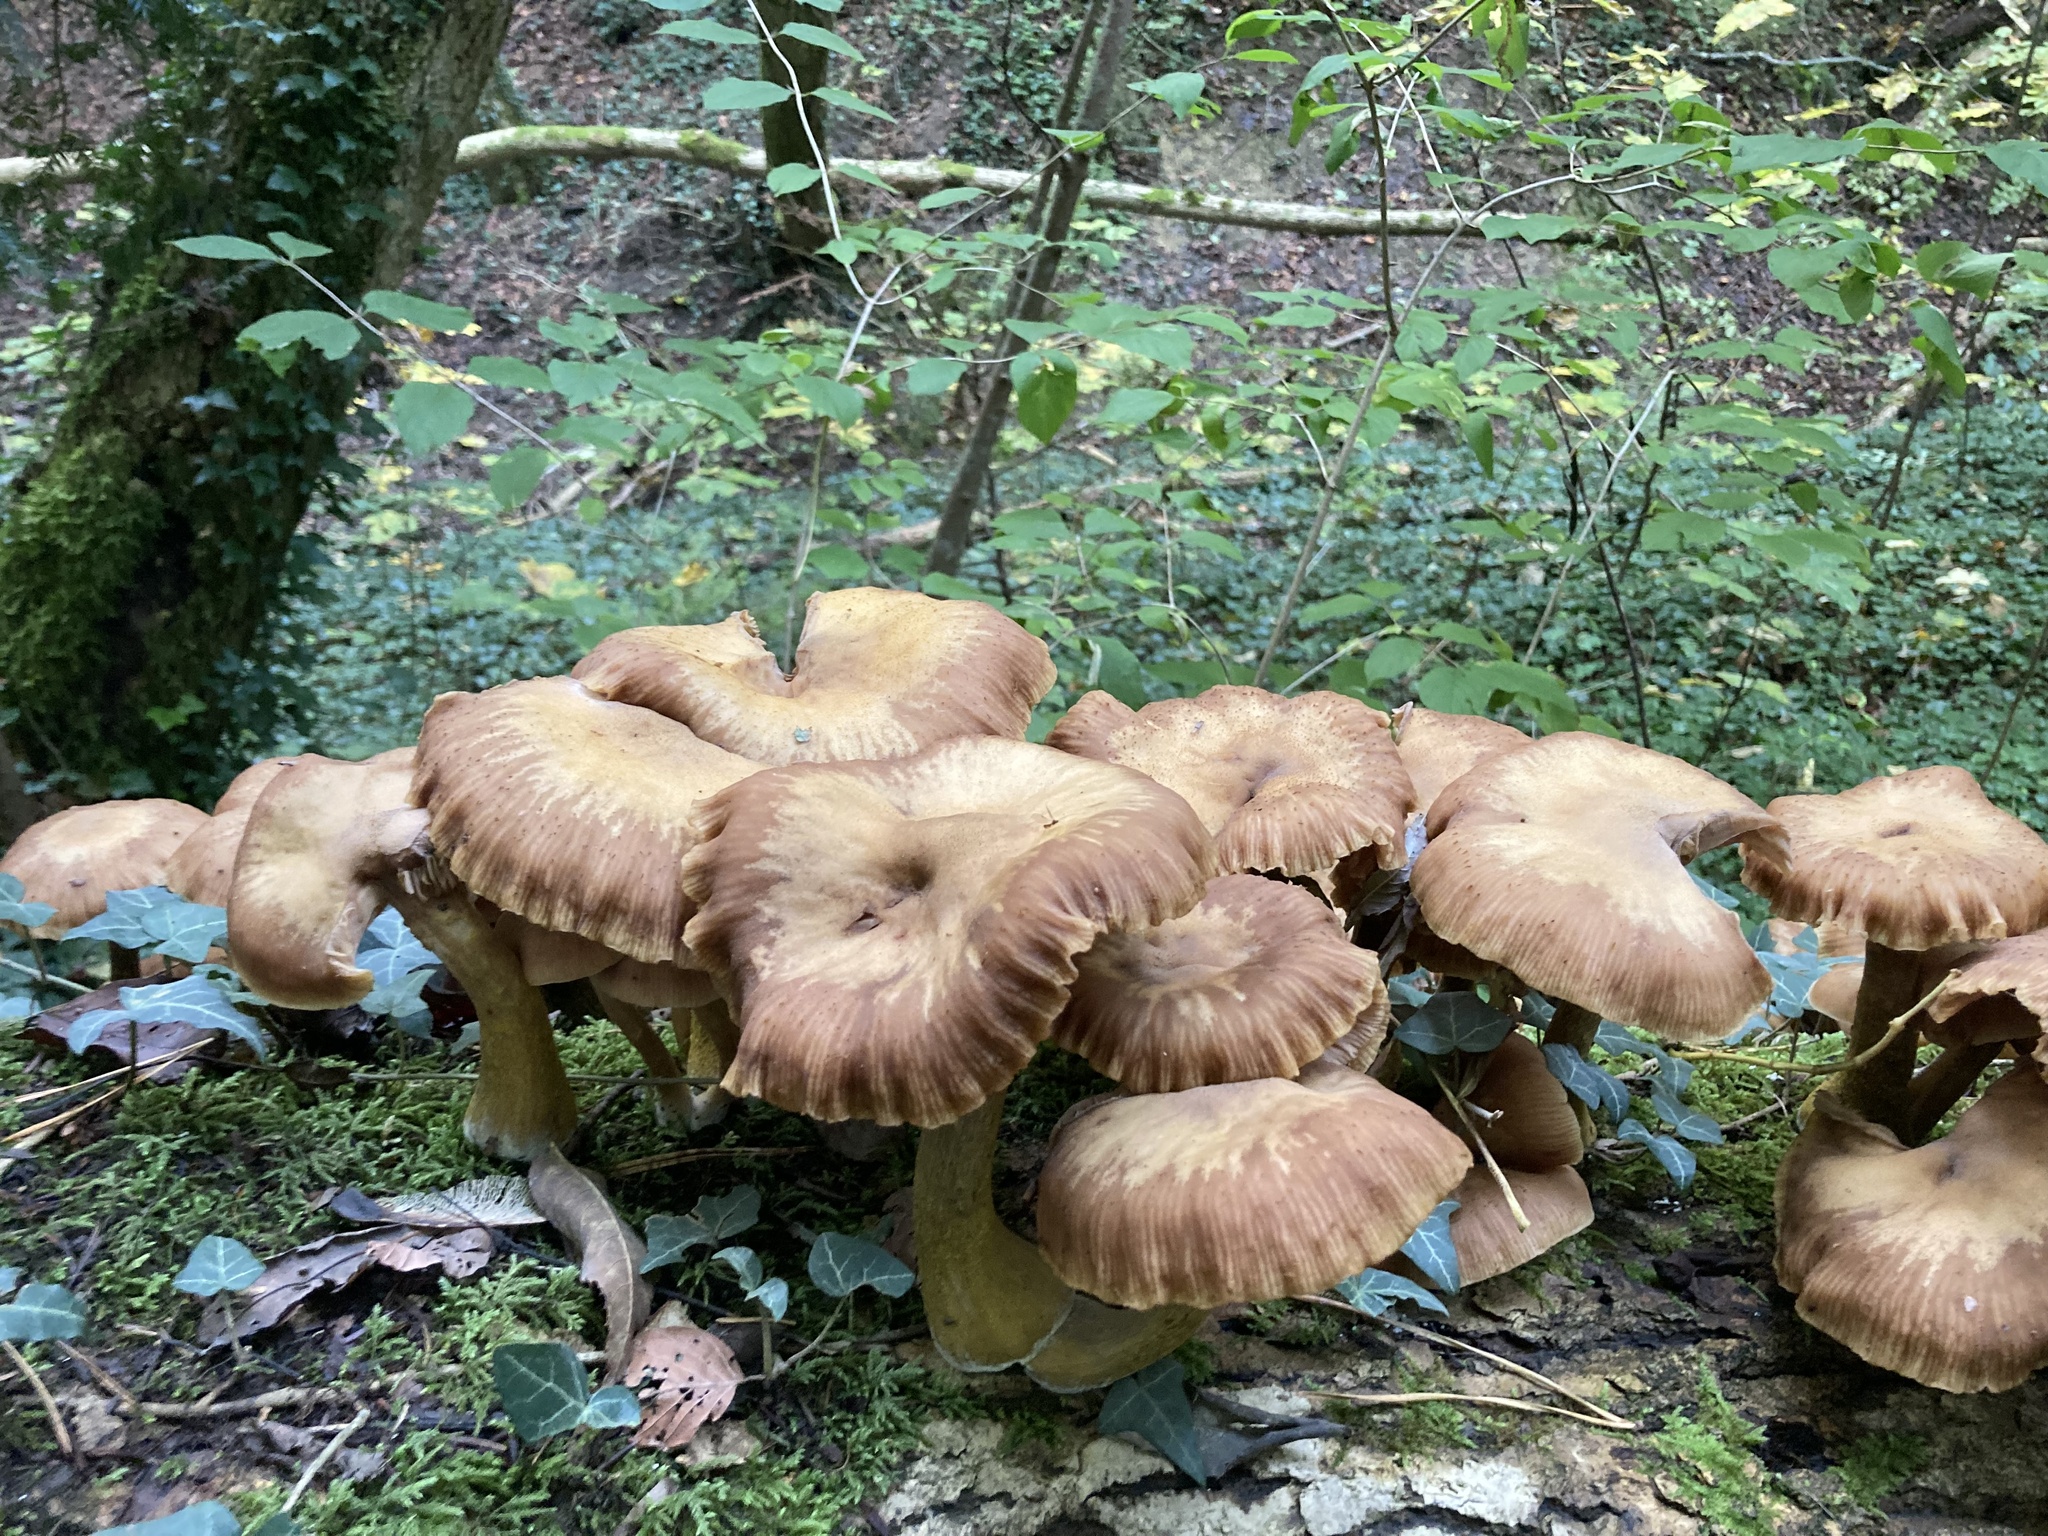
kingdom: Fungi
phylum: Basidiomycota
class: Agaricomycetes
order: Agaricales
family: Physalacriaceae
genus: Armillaria
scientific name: Armillaria gallica
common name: Bulbous honey fungus
